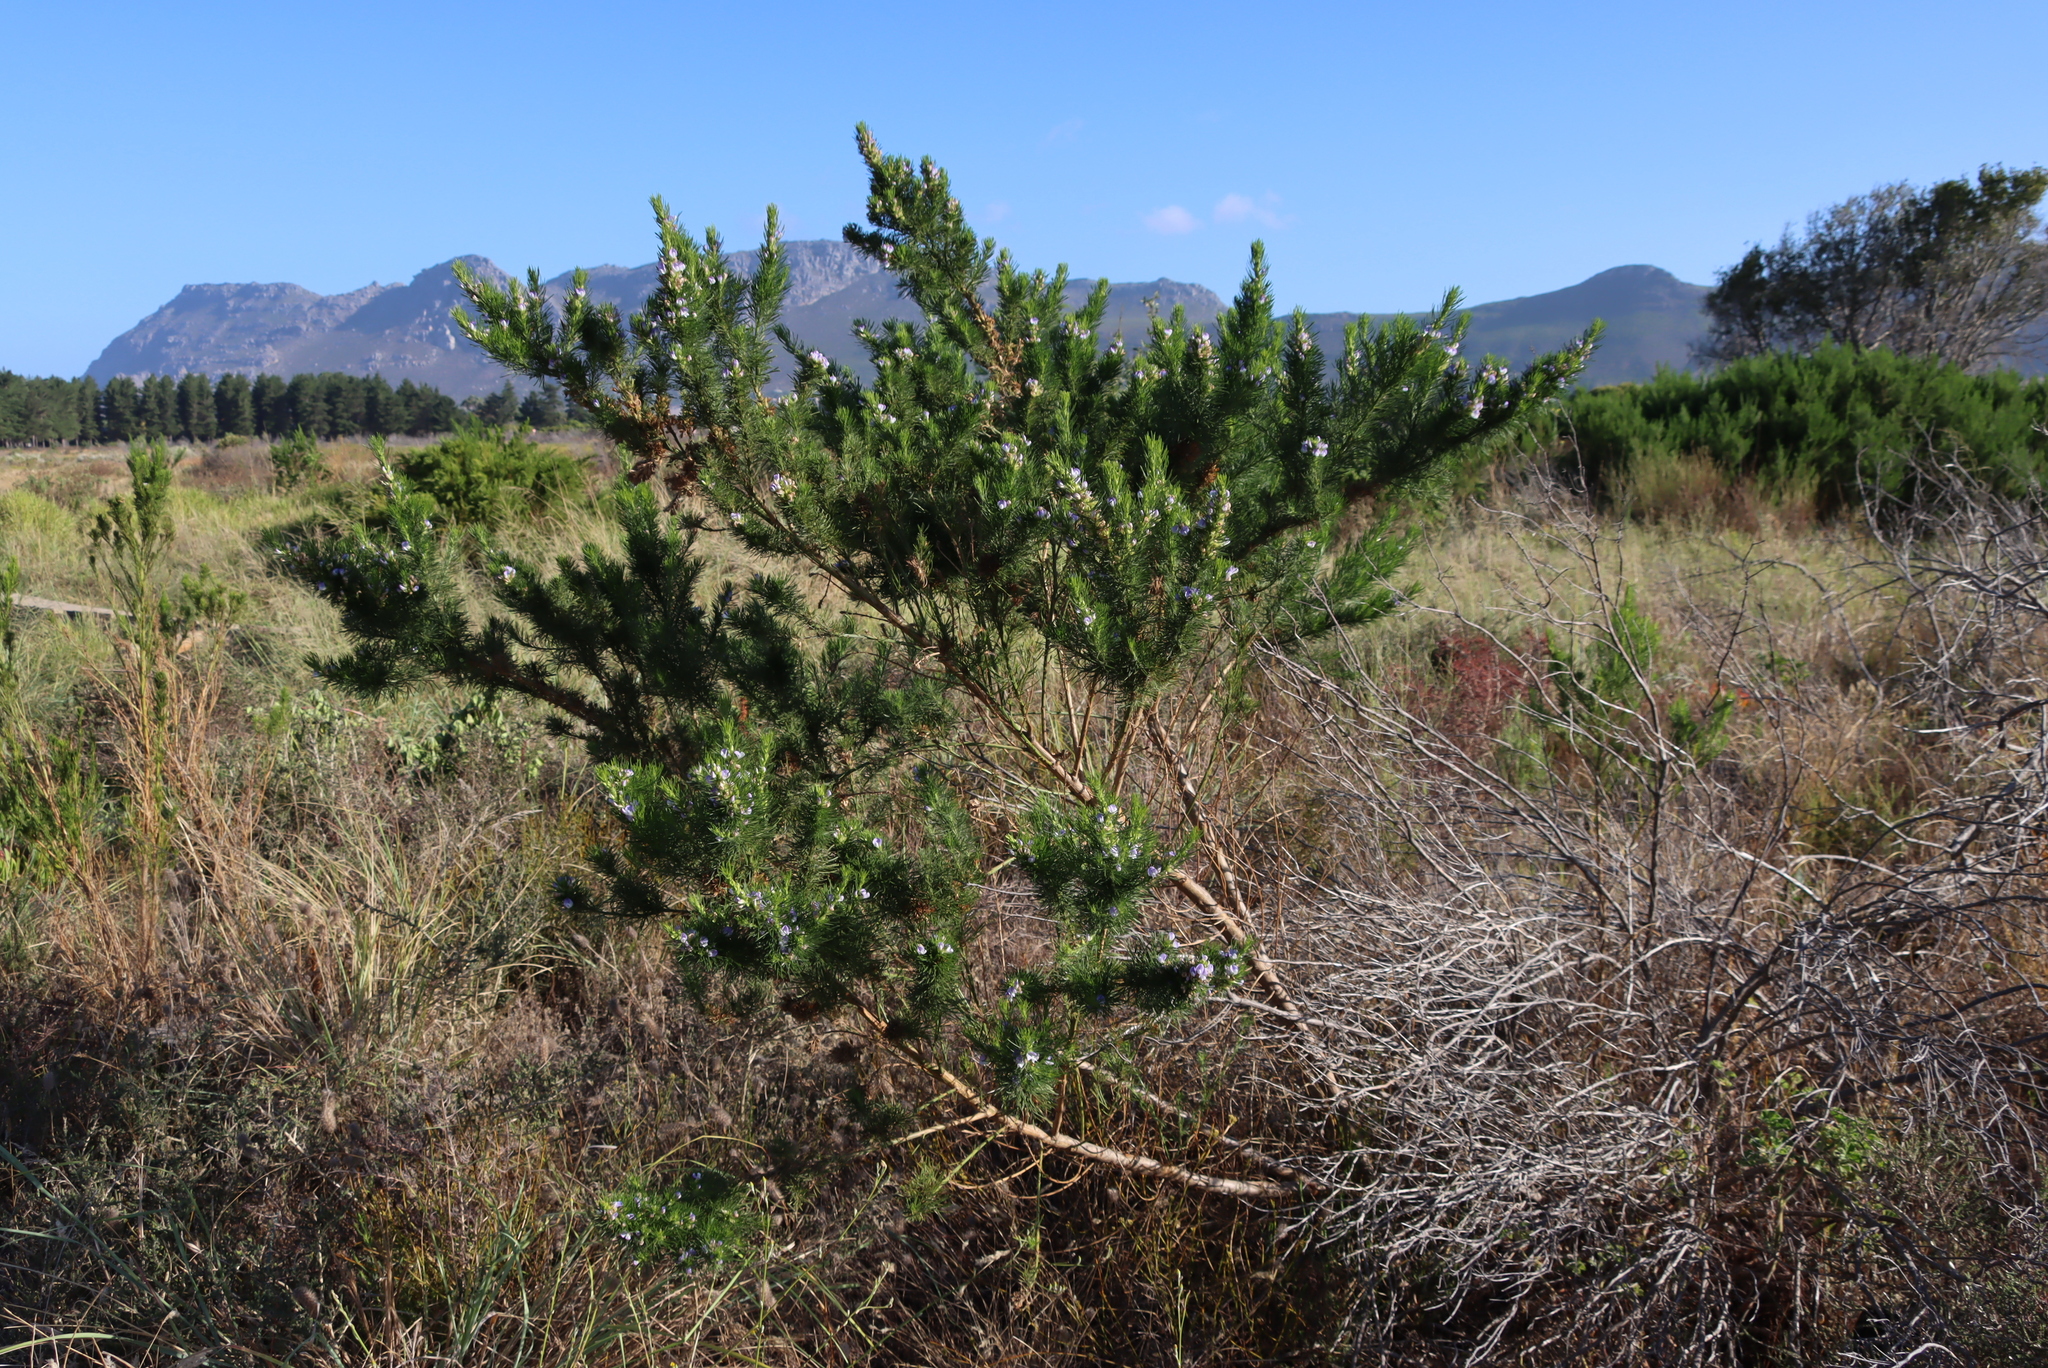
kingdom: Plantae
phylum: Tracheophyta
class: Magnoliopsida
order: Fabales
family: Fabaceae
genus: Psoralea
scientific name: Psoralea pinnata
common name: African scurfpea
